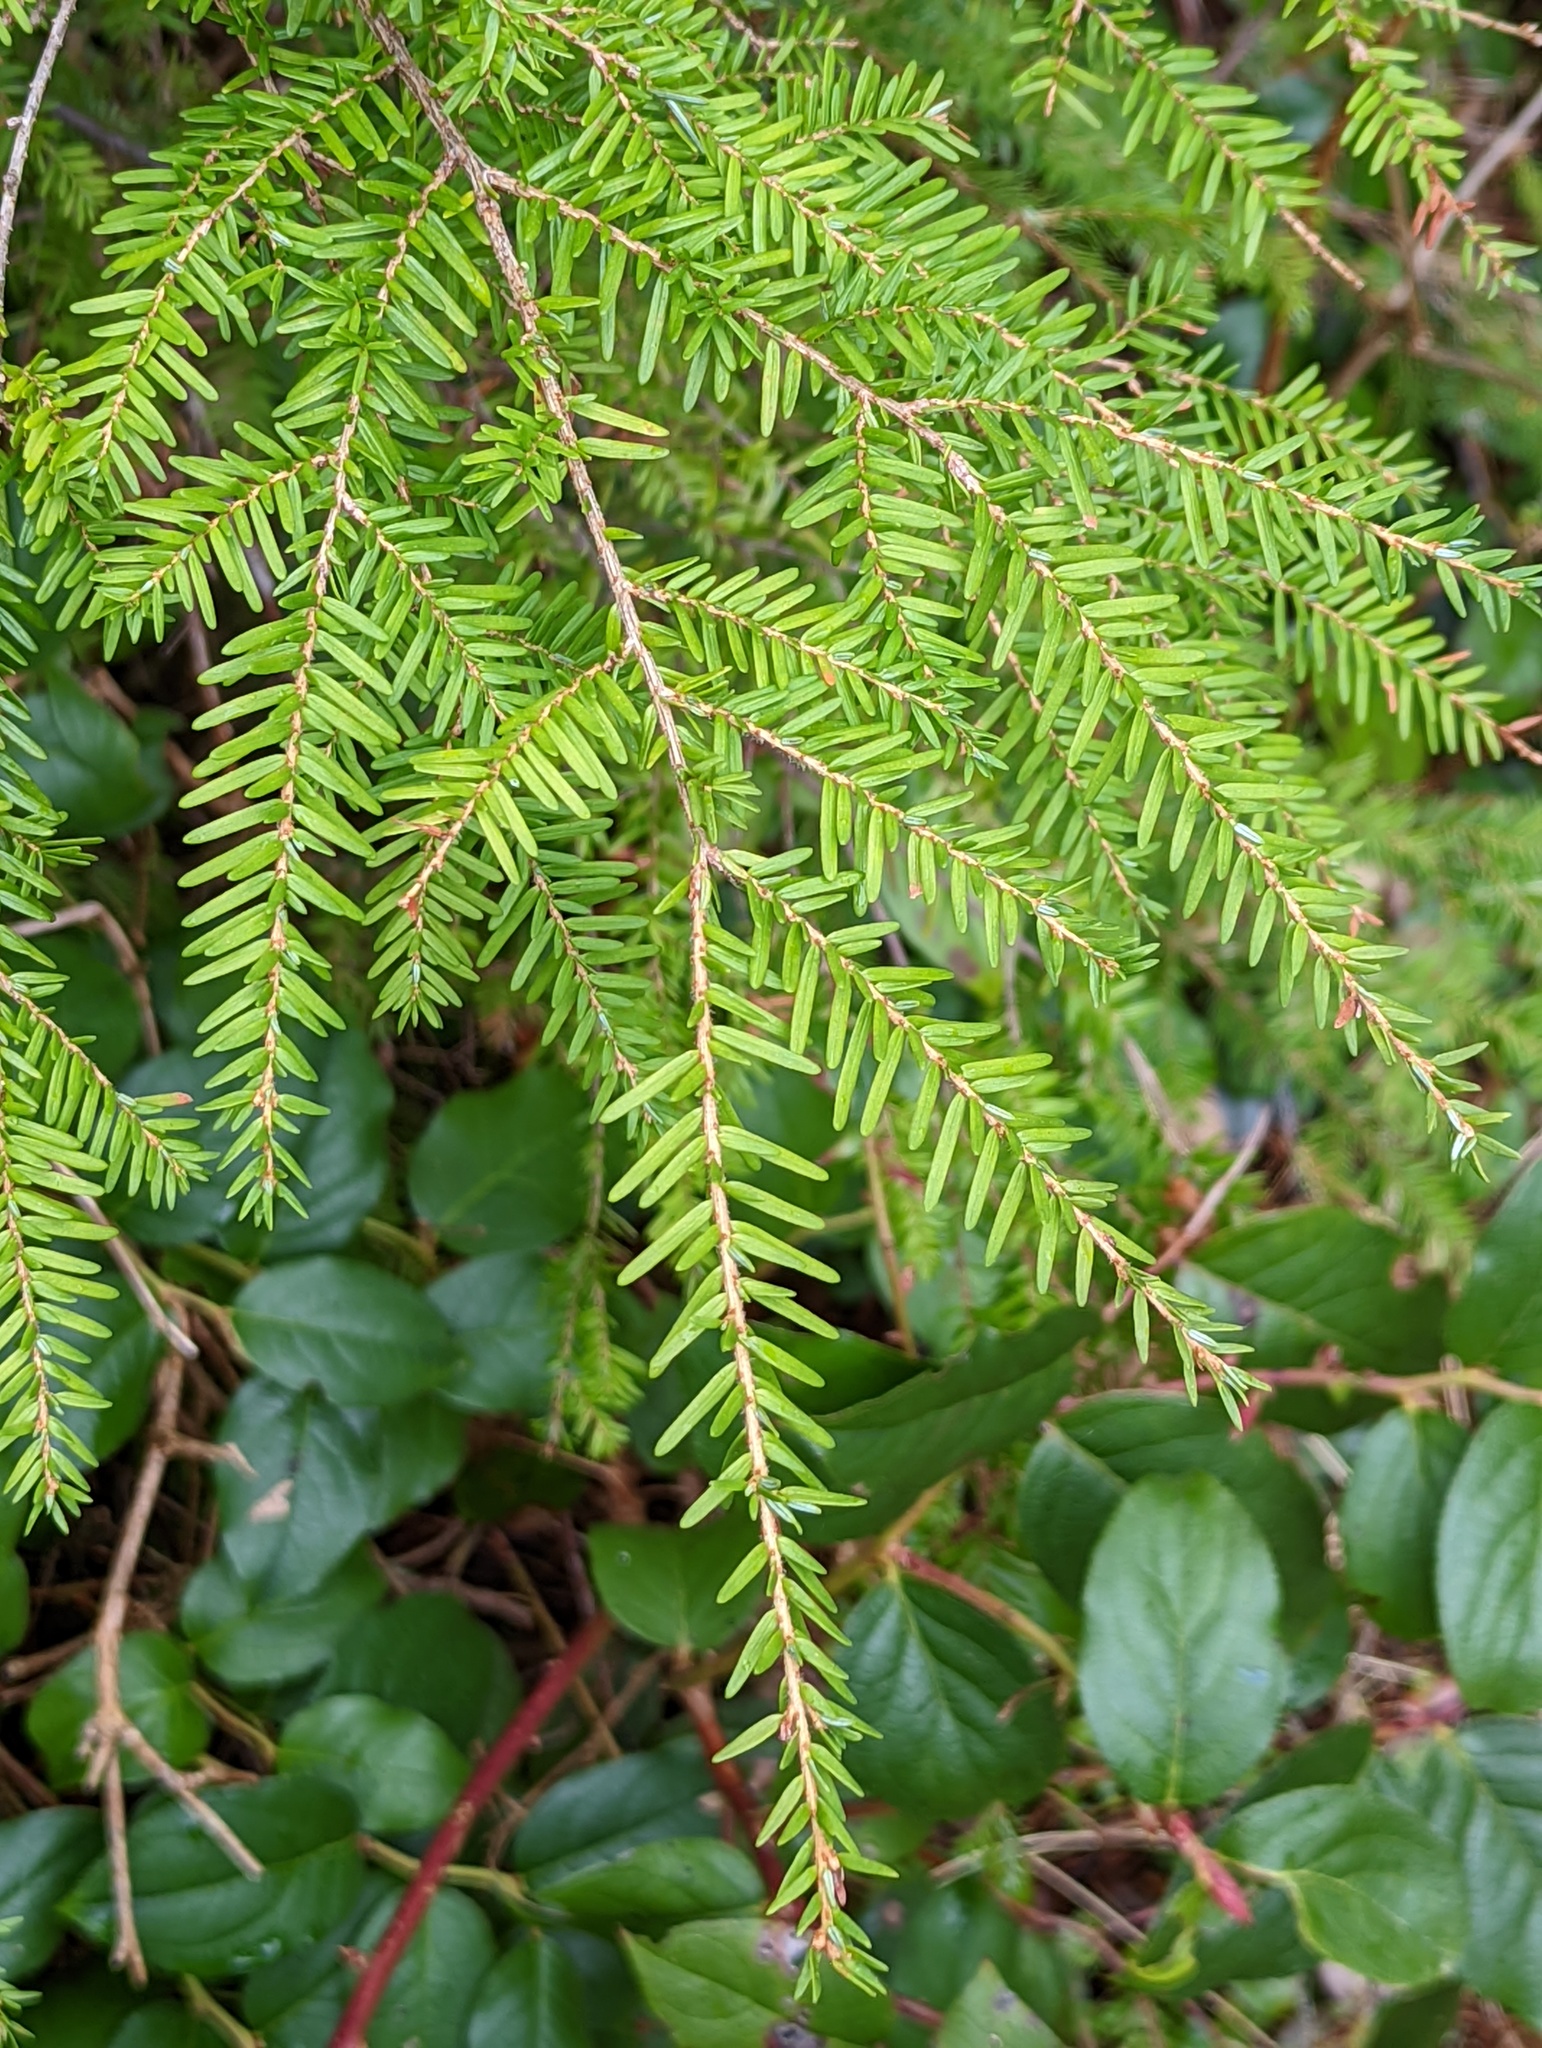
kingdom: Plantae
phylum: Tracheophyta
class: Pinopsida
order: Pinales
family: Pinaceae
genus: Tsuga
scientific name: Tsuga heterophylla
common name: Western hemlock
